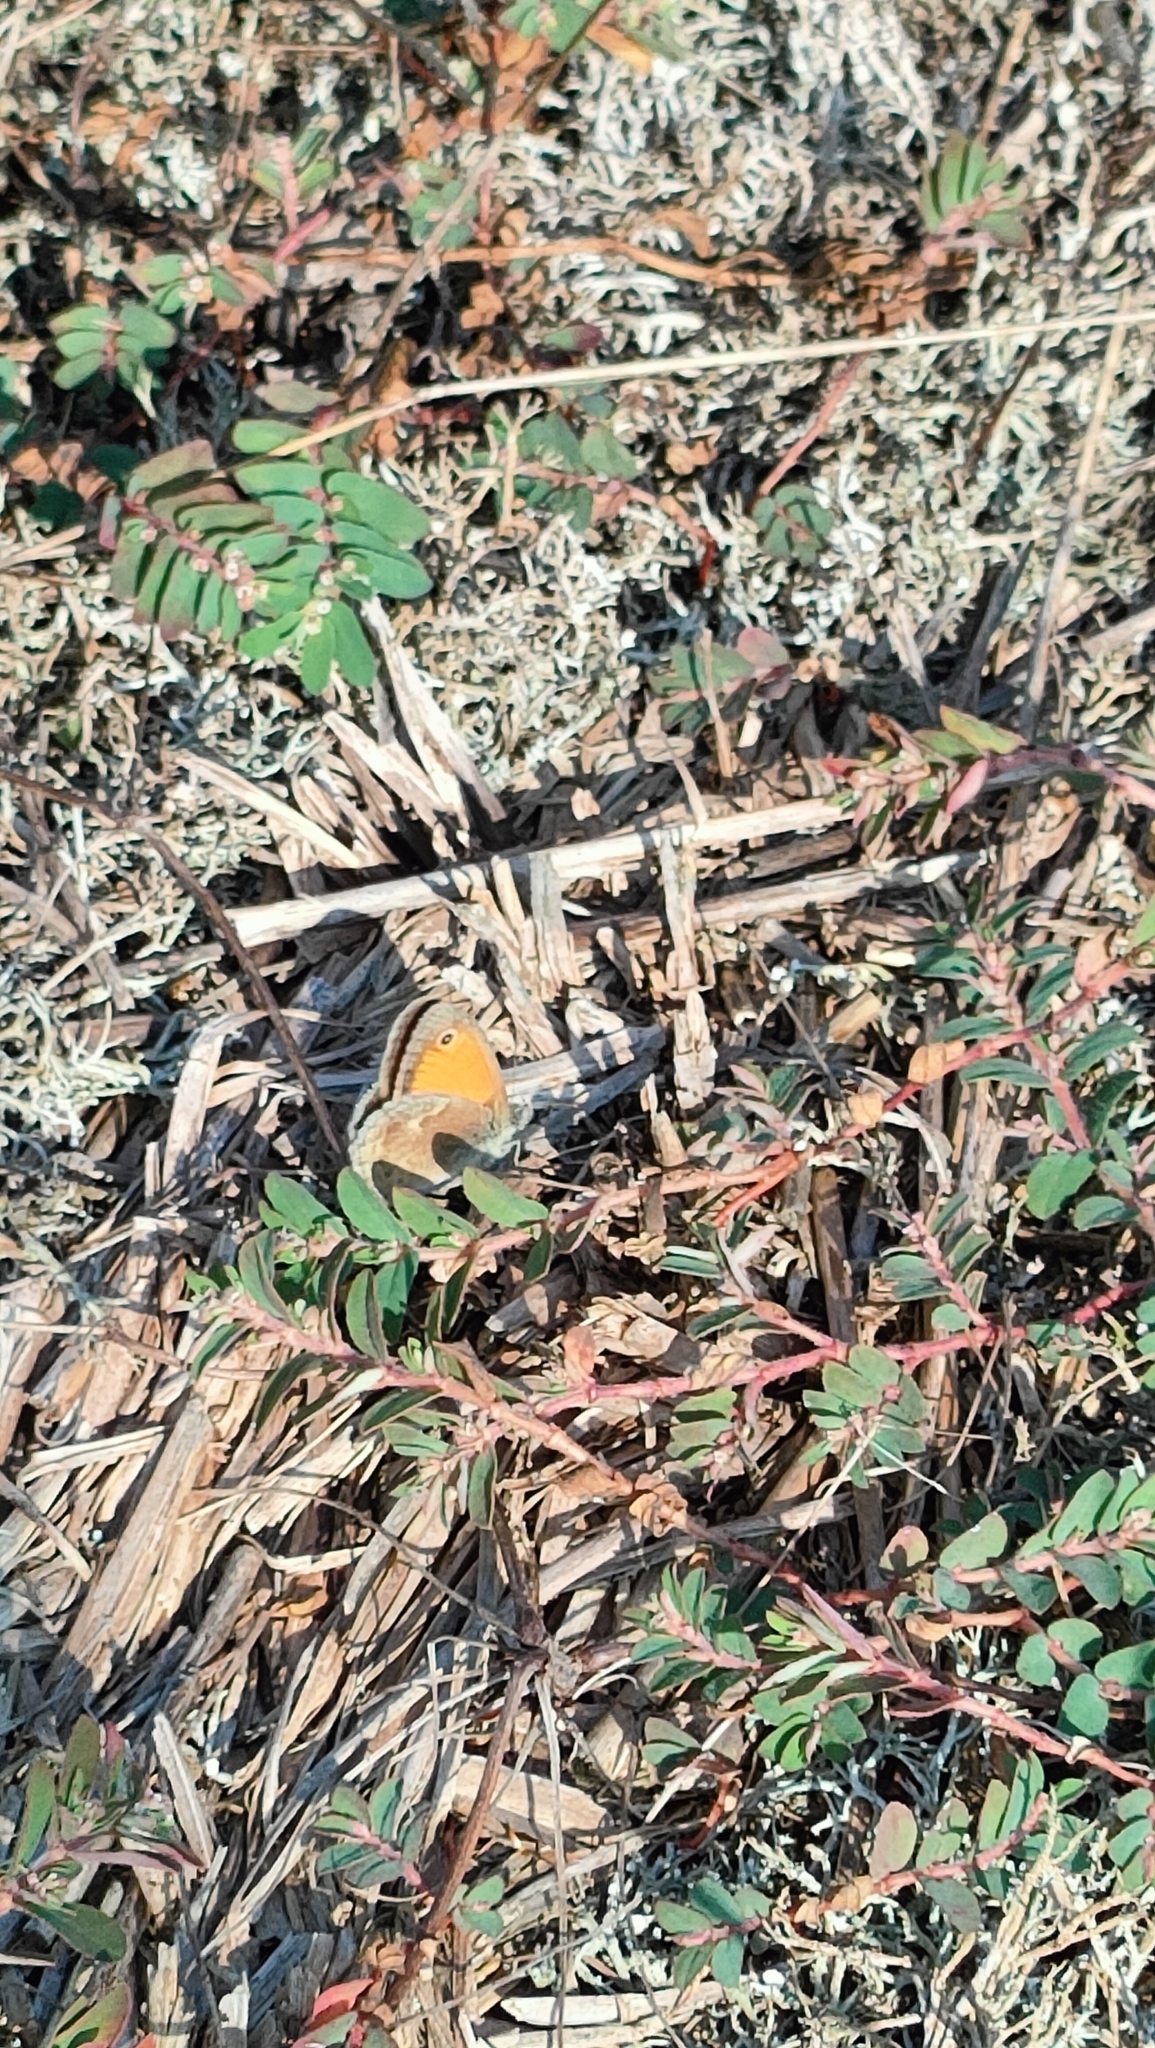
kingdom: Animalia
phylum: Arthropoda
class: Insecta
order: Lepidoptera
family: Nymphalidae
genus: Coenonympha
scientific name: Coenonympha pamphilus
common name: Small heath
